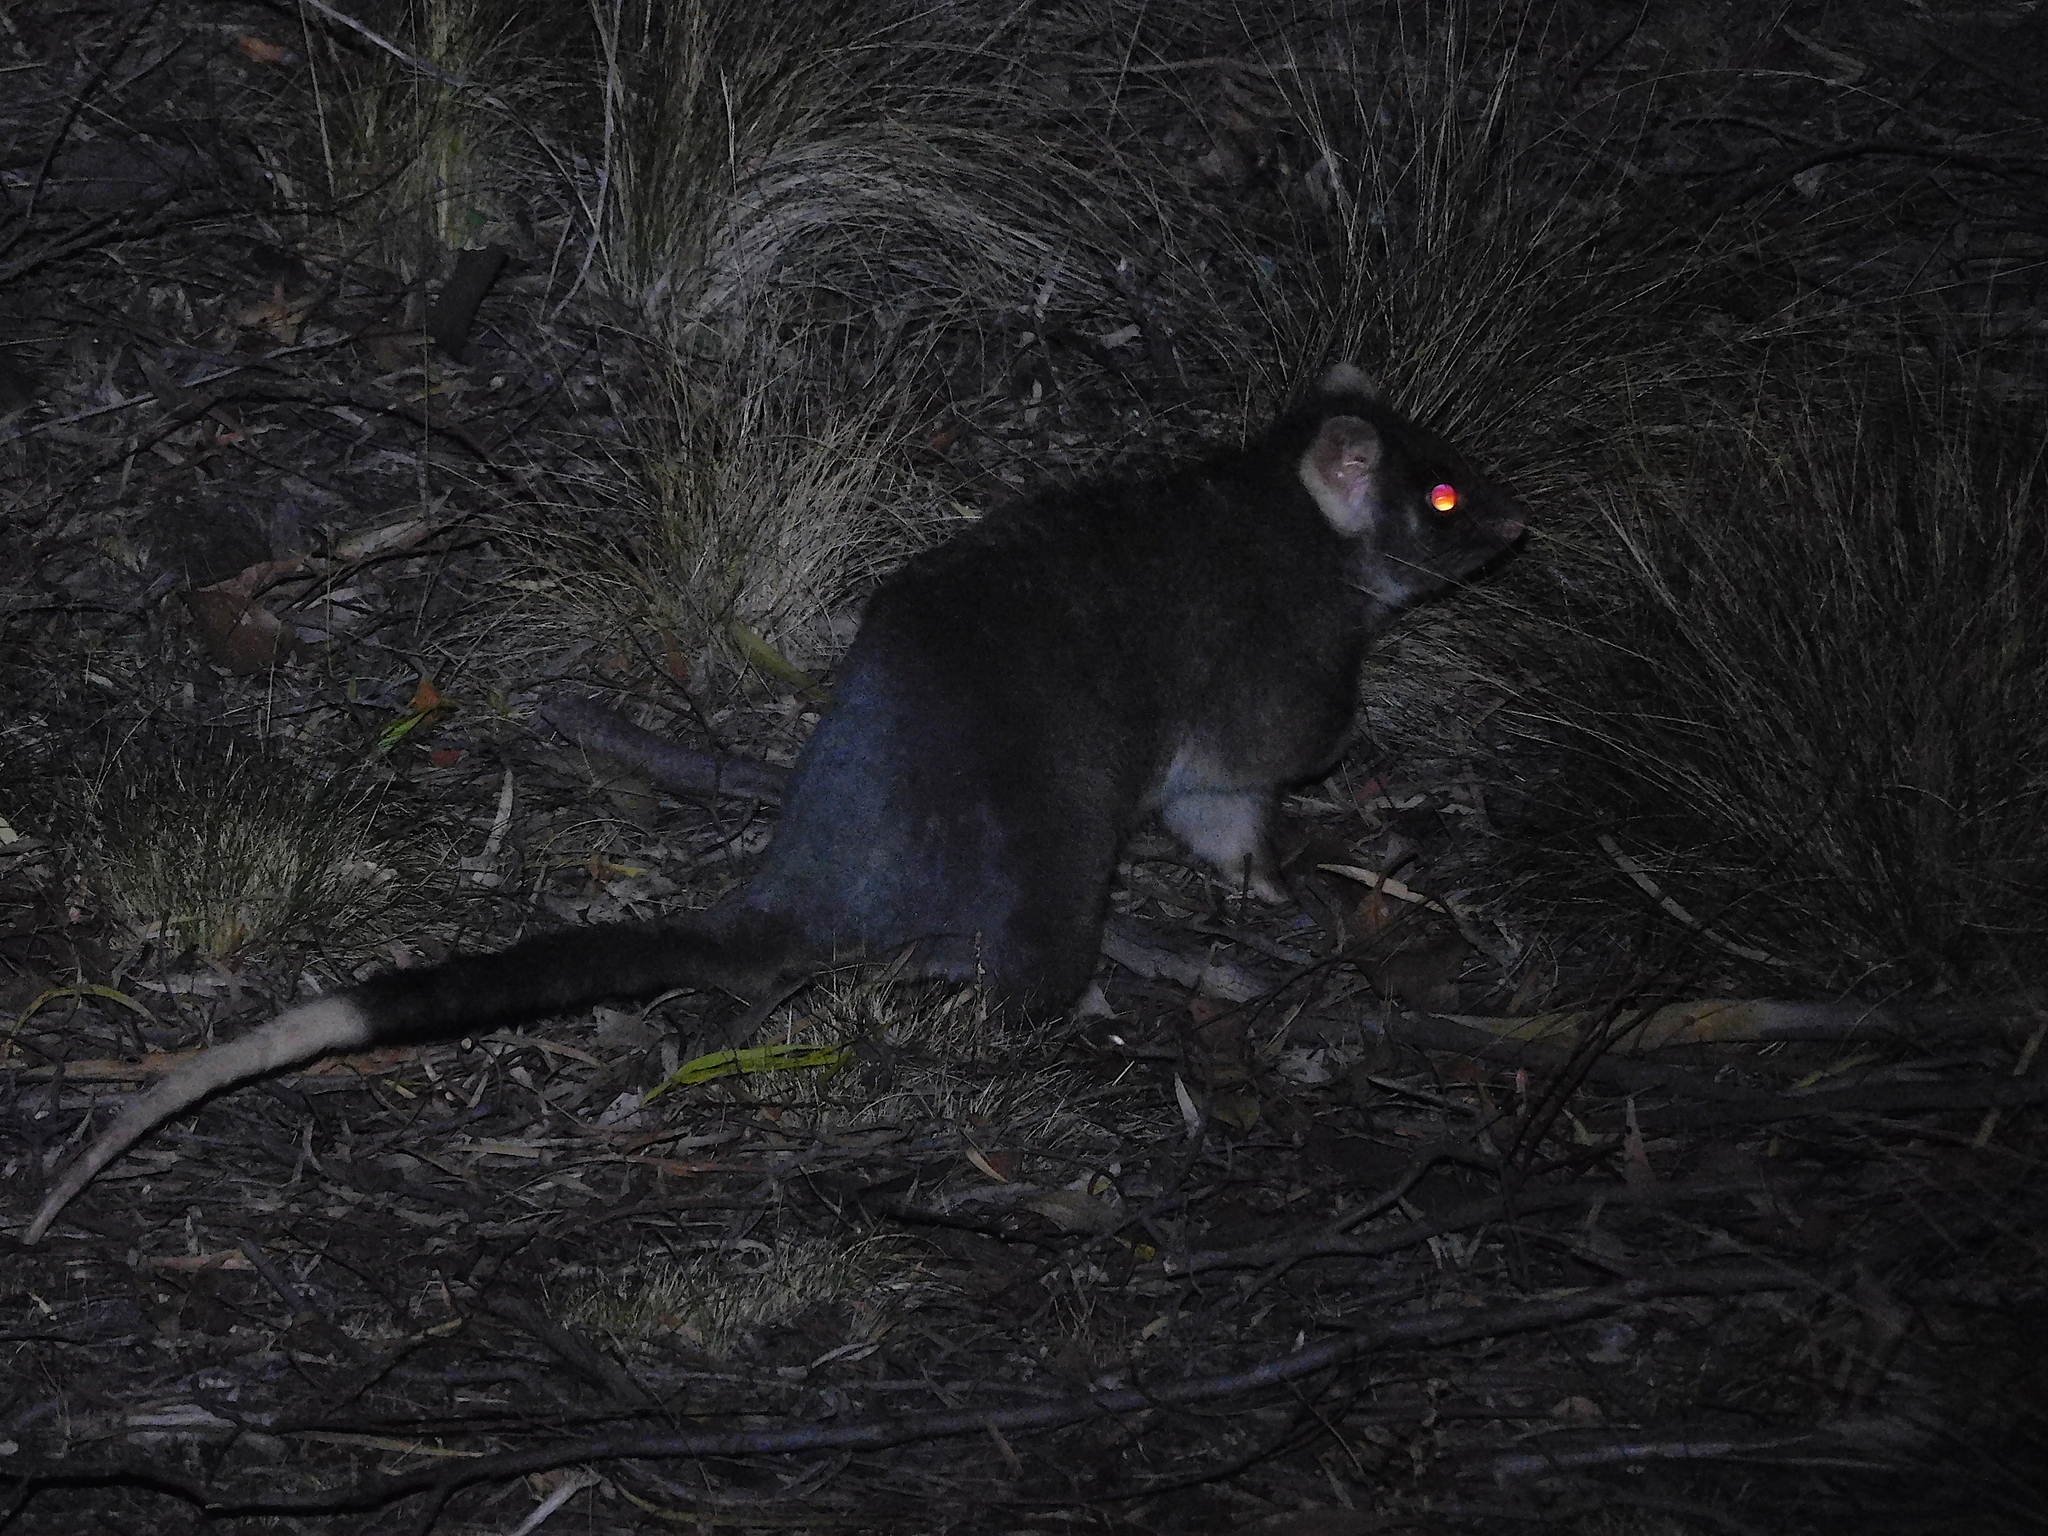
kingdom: Animalia
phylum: Chordata
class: Mammalia
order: Diprotodontia
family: Pseudocheiridae
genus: Pseudocheirus
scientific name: Pseudocheirus peregrinus
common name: Common ringtail possum
